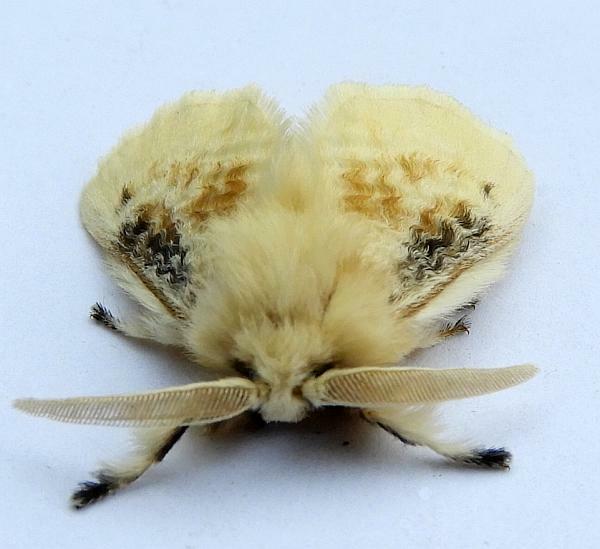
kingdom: Animalia
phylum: Arthropoda
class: Insecta
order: Lepidoptera
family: Megalopygidae
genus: Megalopyge
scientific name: Megalopyge crispata
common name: Black-waved flannel moth
